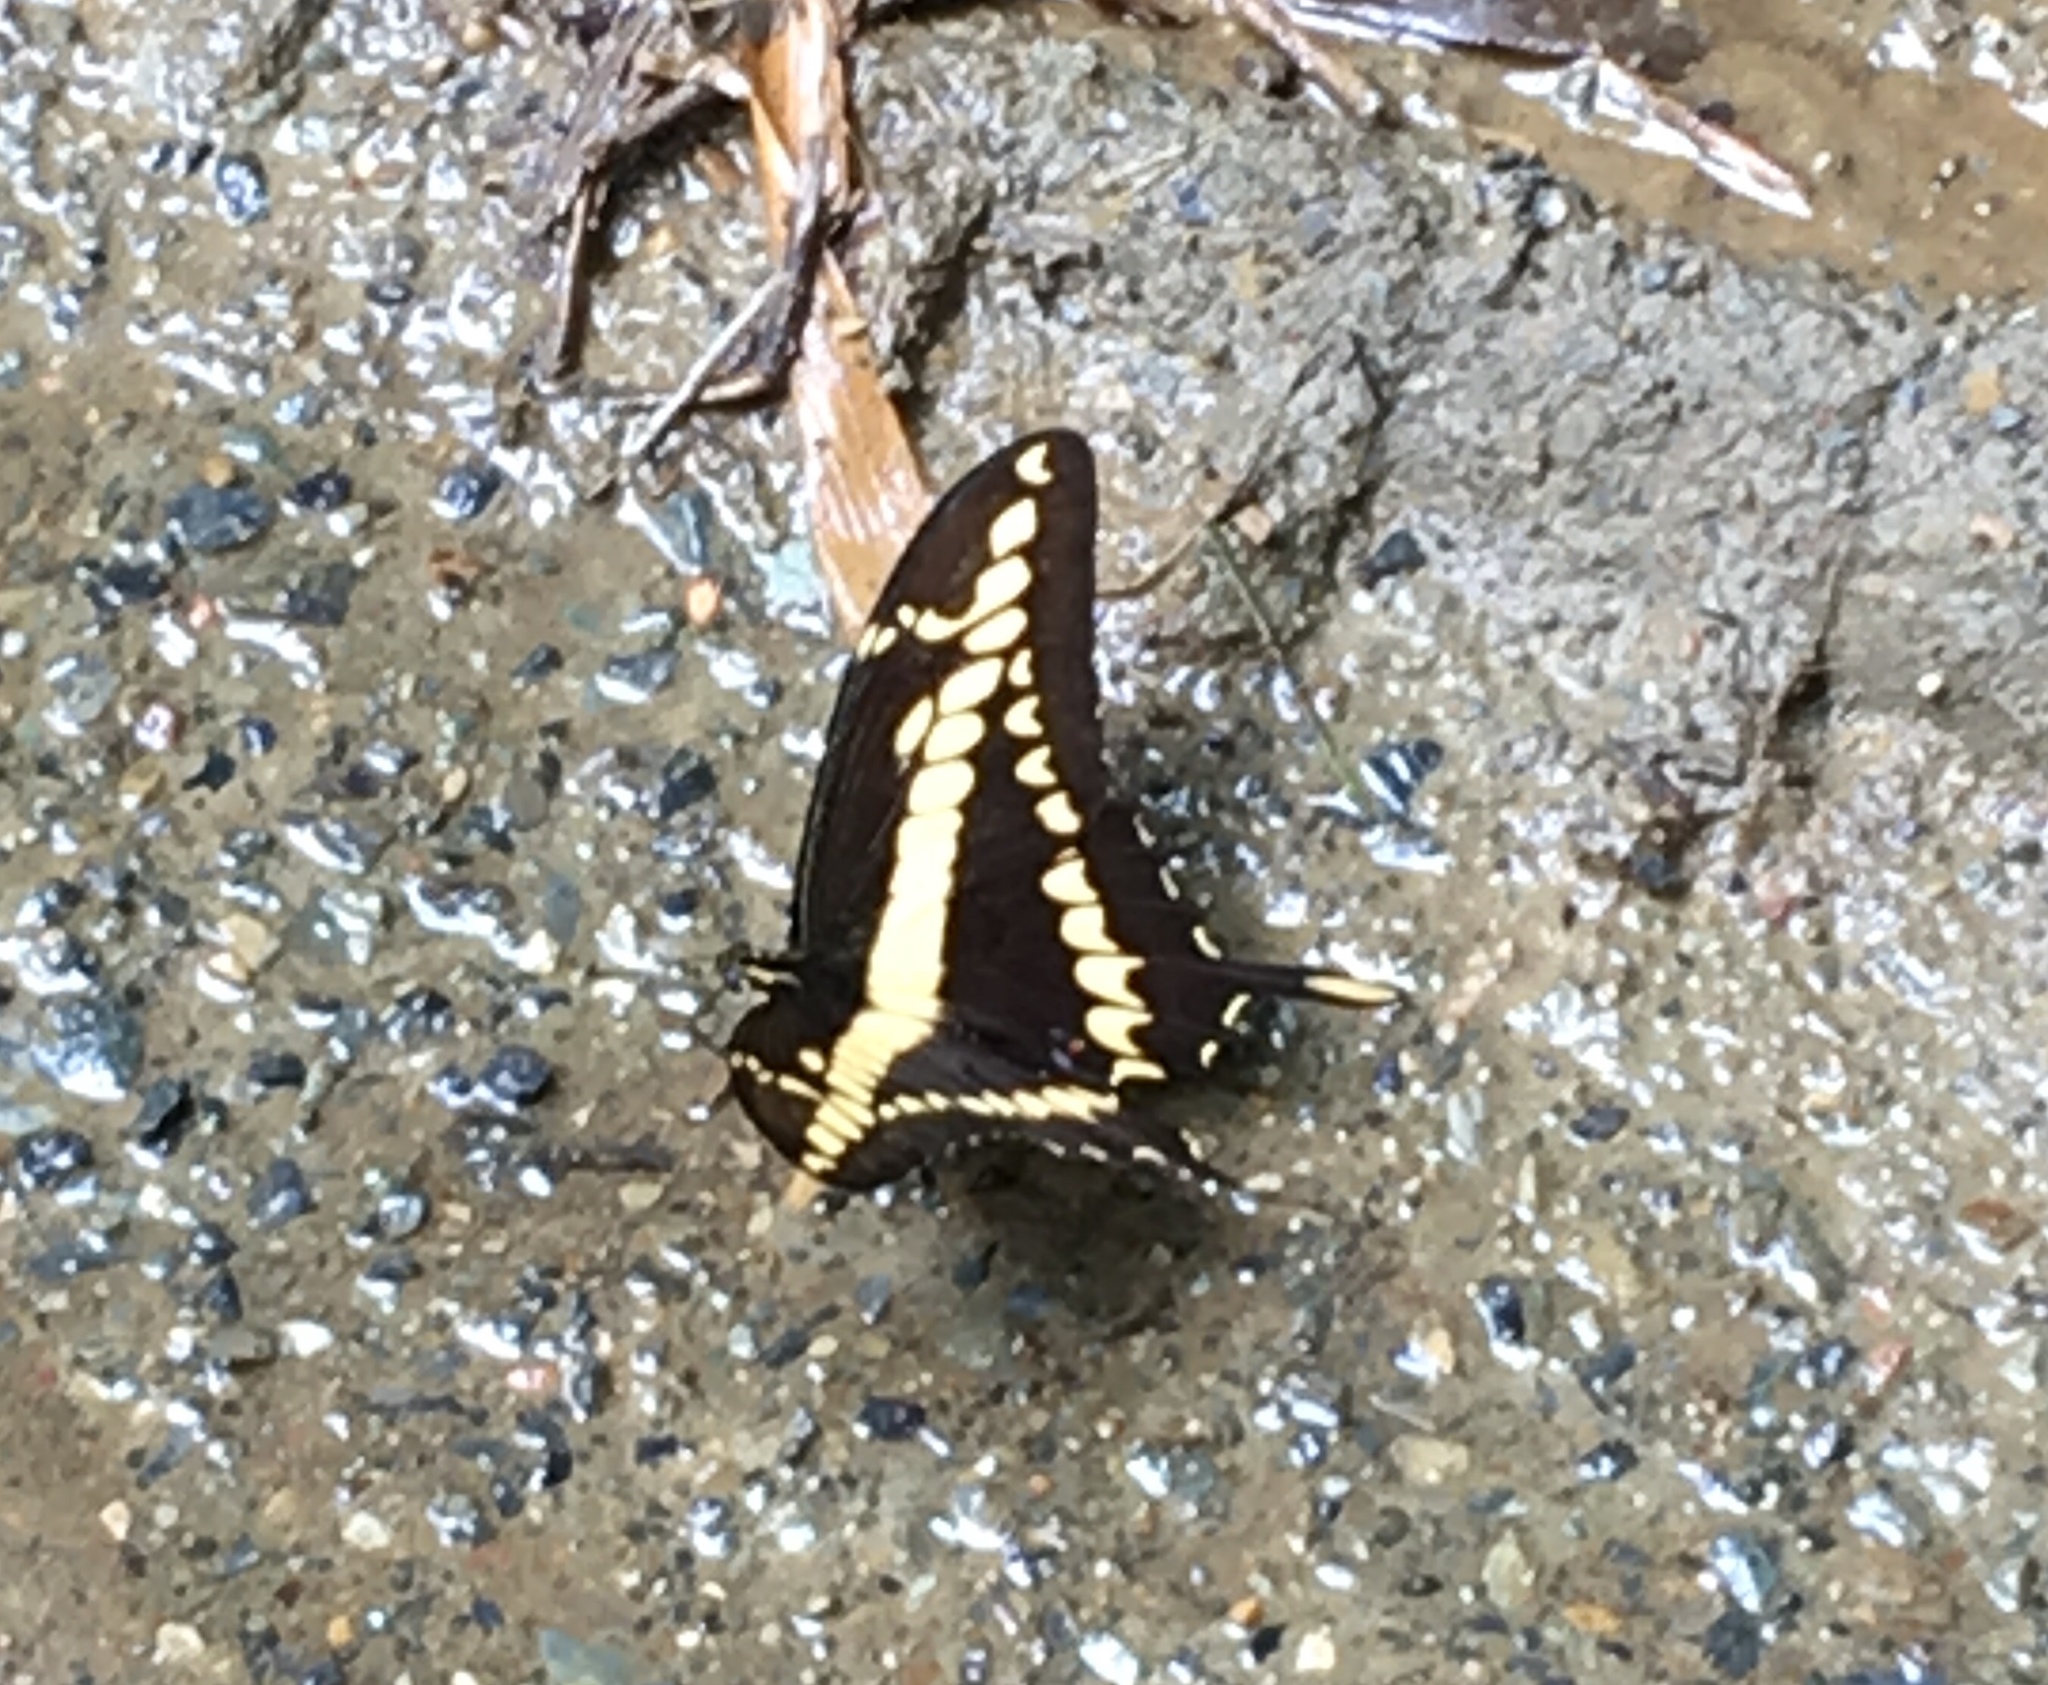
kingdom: Animalia
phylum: Arthropoda
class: Insecta
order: Lepidoptera
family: Papilionidae
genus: Papilio
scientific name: Papilio thoas
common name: King swallowtail
